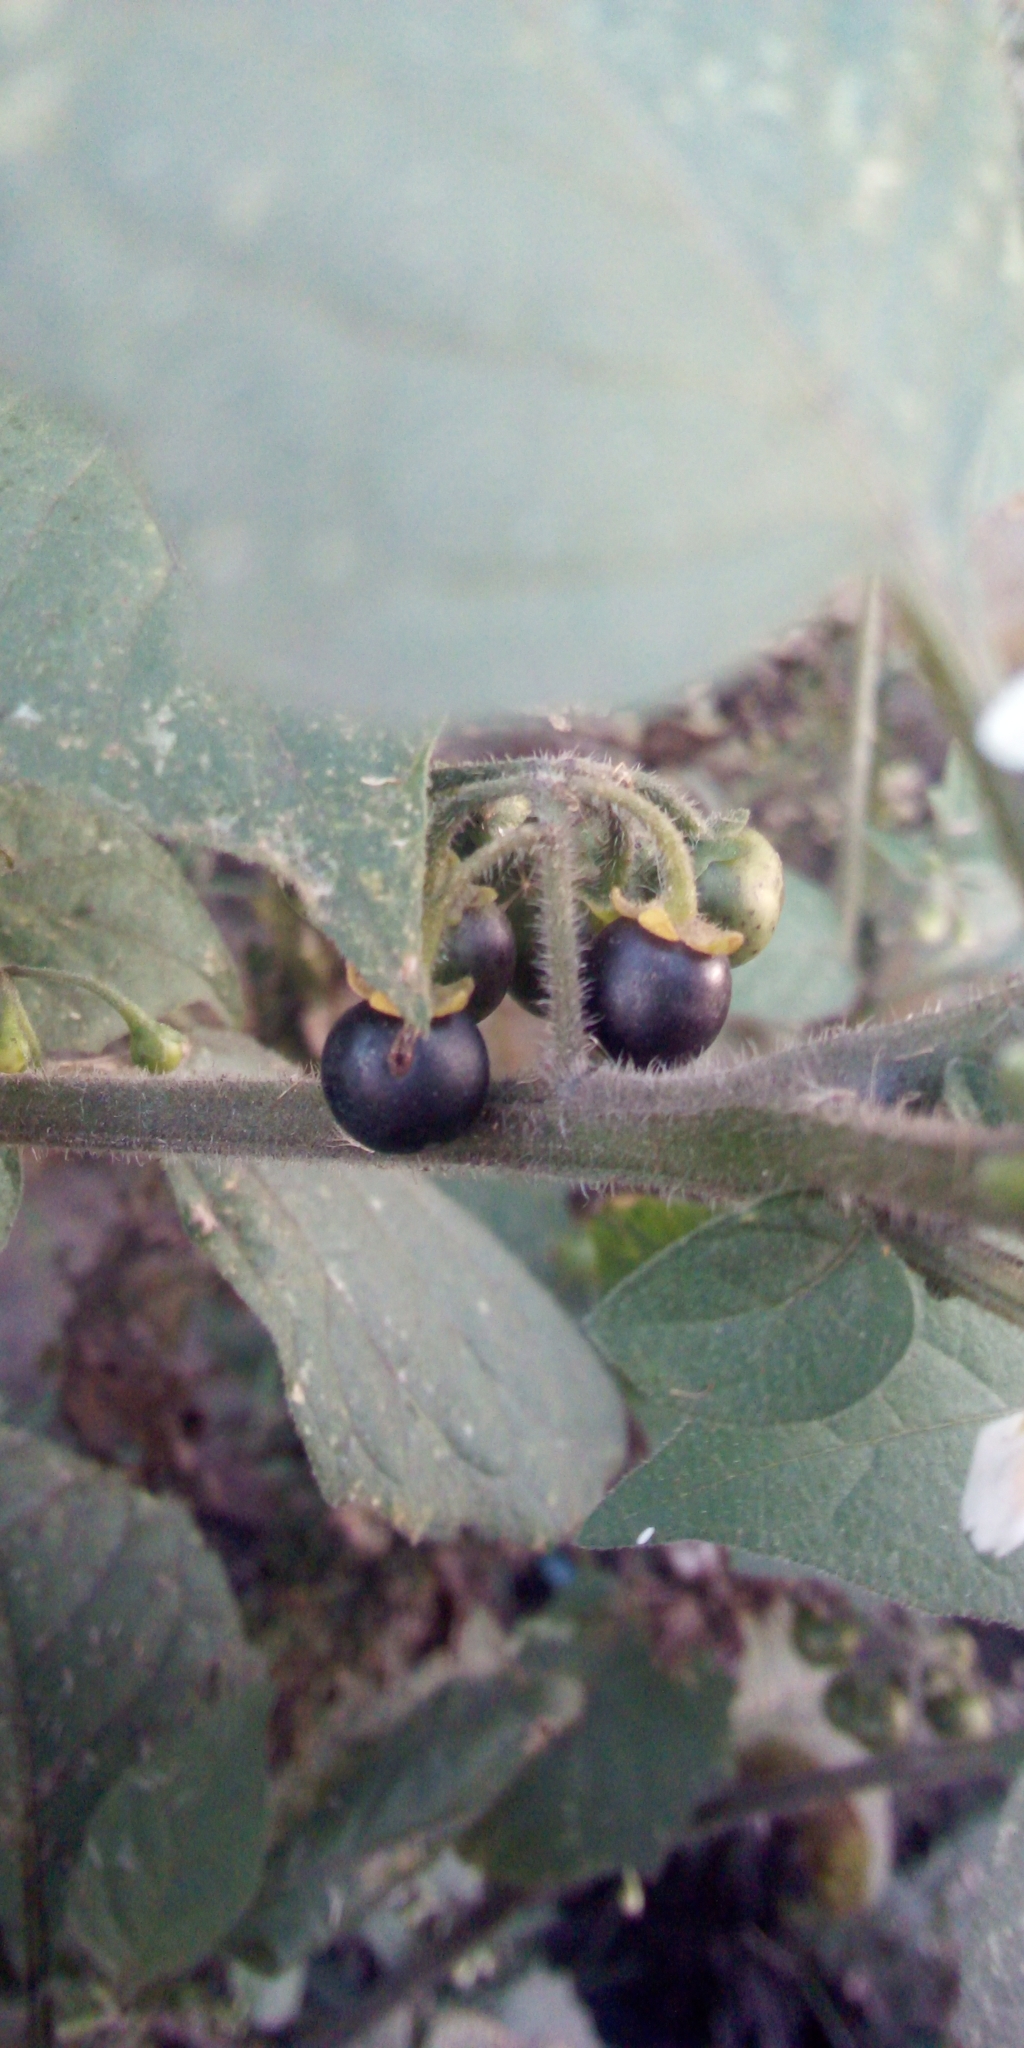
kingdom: Plantae
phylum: Tracheophyta
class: Magnoliopsida
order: Solanales
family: Solanaceae
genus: Solanum
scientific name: Solanum nigrum
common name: Black nightshade
